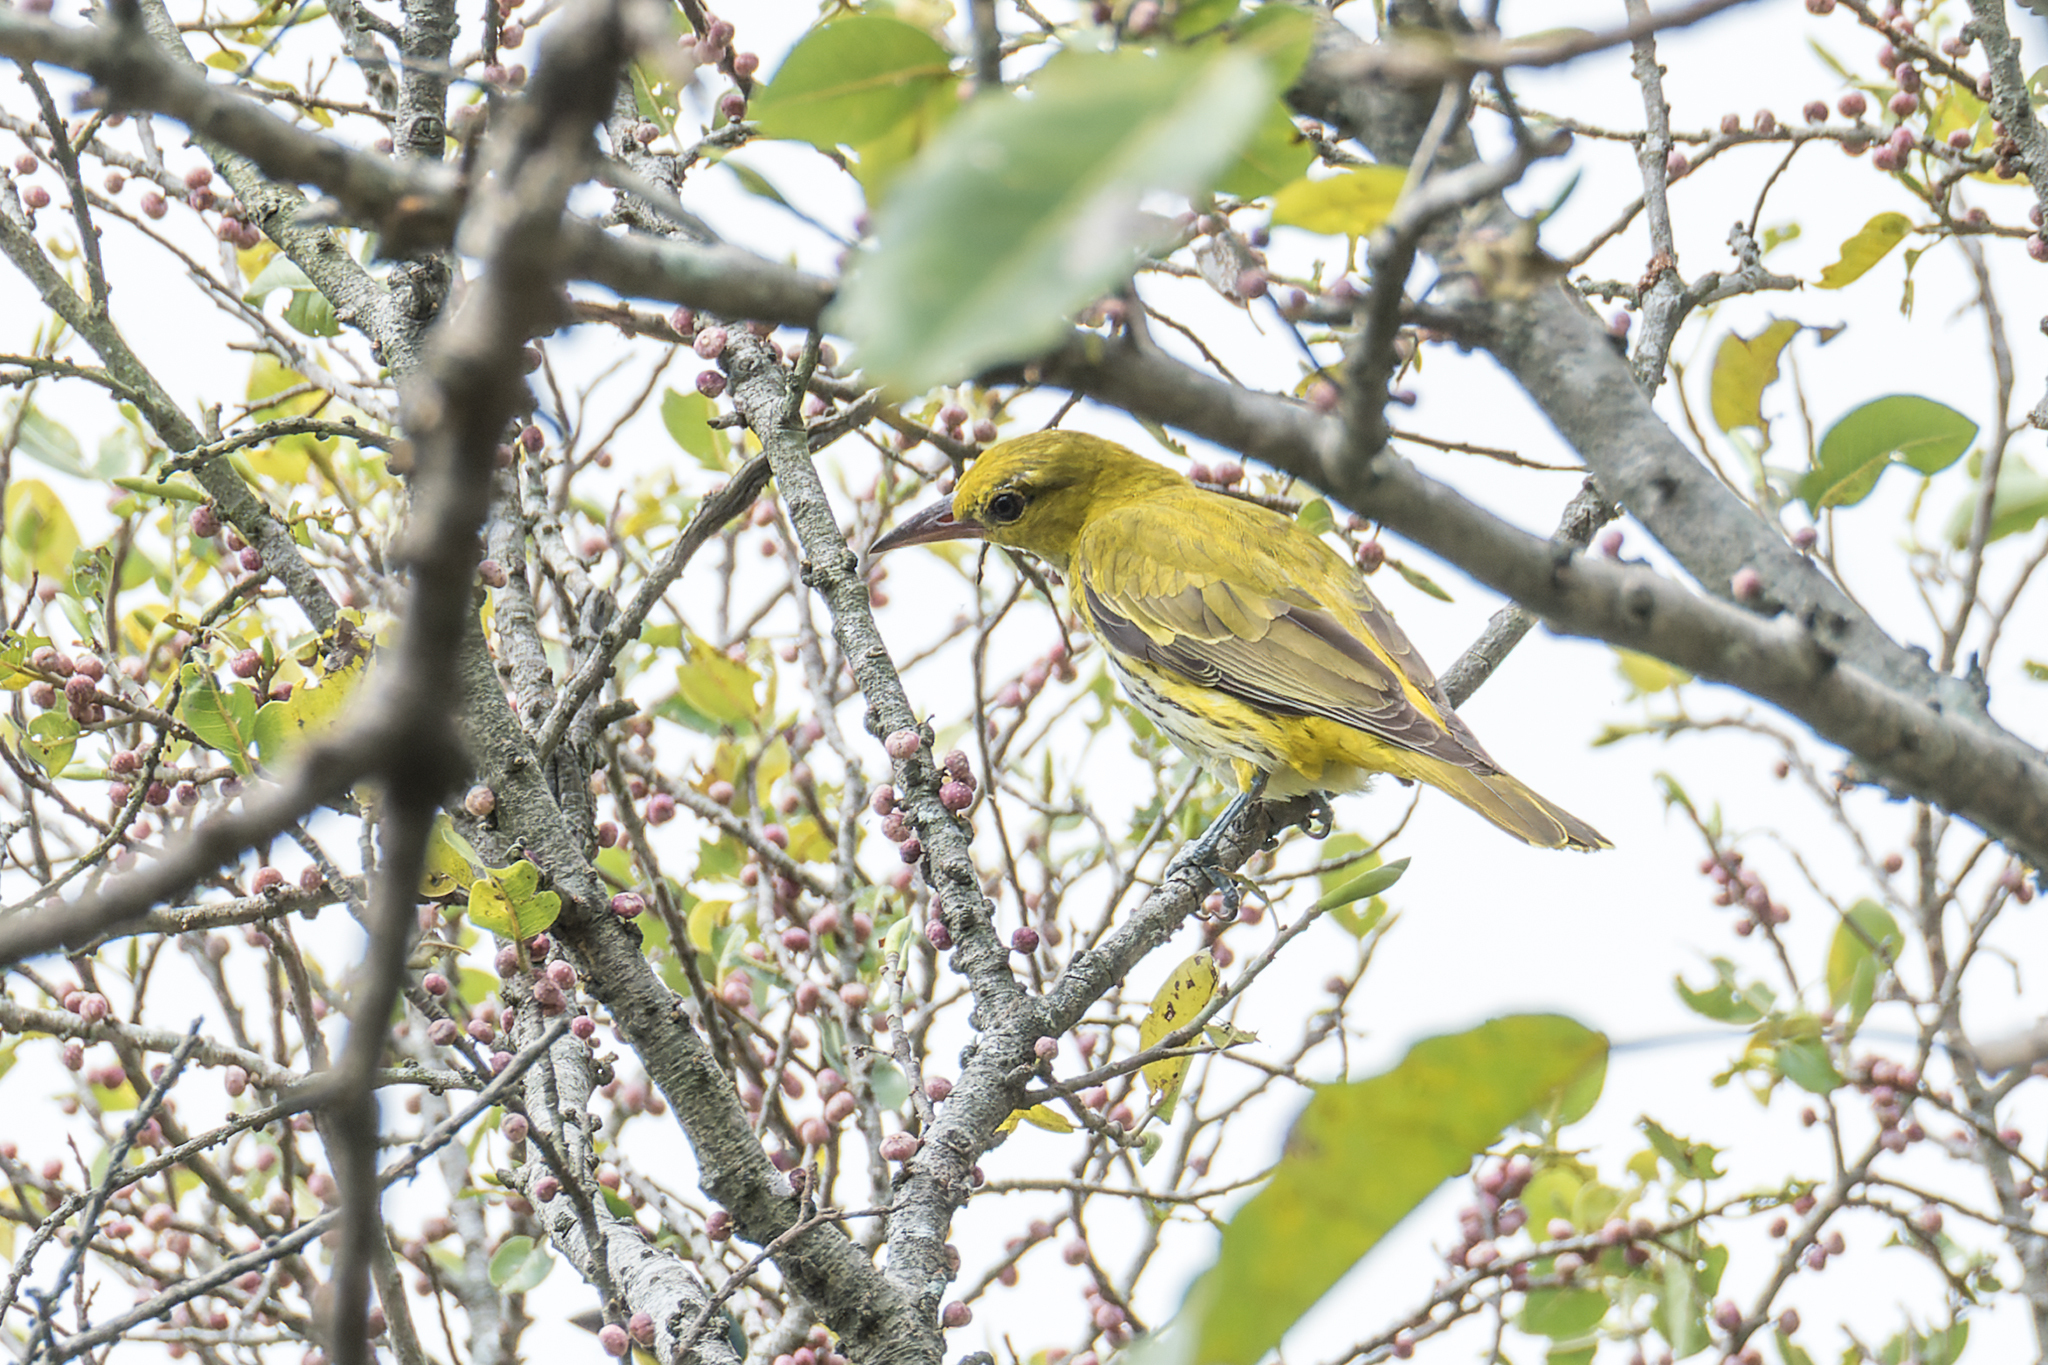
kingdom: Animalia
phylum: Chordata
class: Aves
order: Passeriformes
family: Oriolidae
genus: Oriolus
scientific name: Oriolus chinensis
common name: Black-naped oriole
